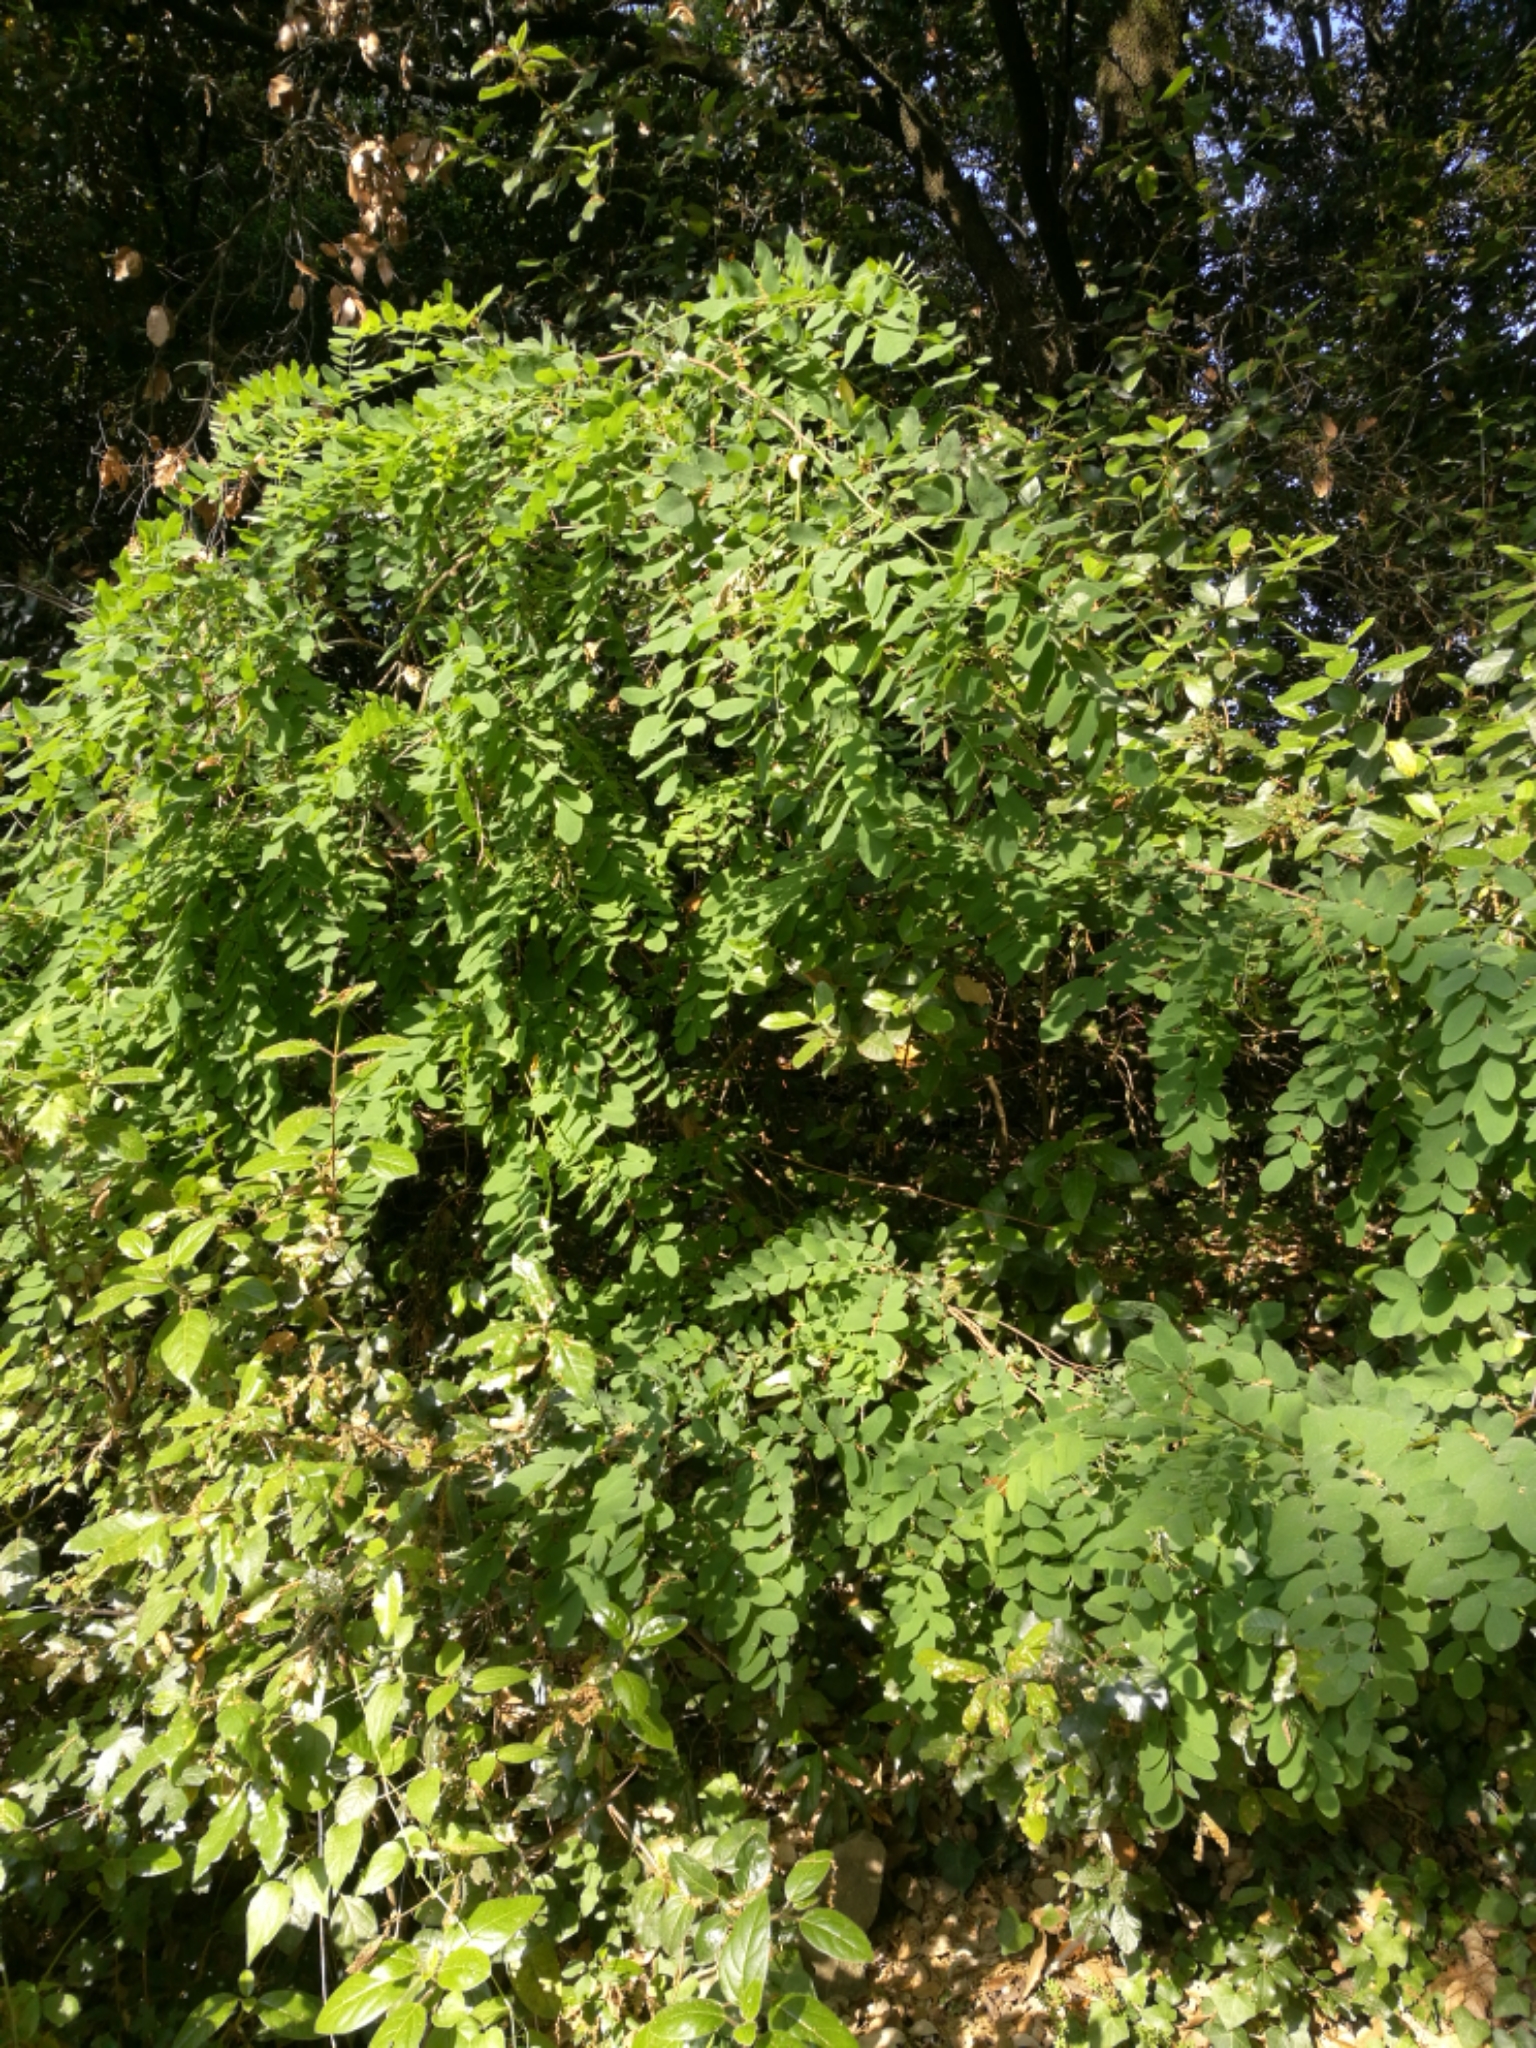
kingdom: Plantae
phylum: Tracheophyta
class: Magnoliopsida
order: Fabales
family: Fabaceae
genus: Robinia
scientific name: Robinia pseudoacacia
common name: Black locust
